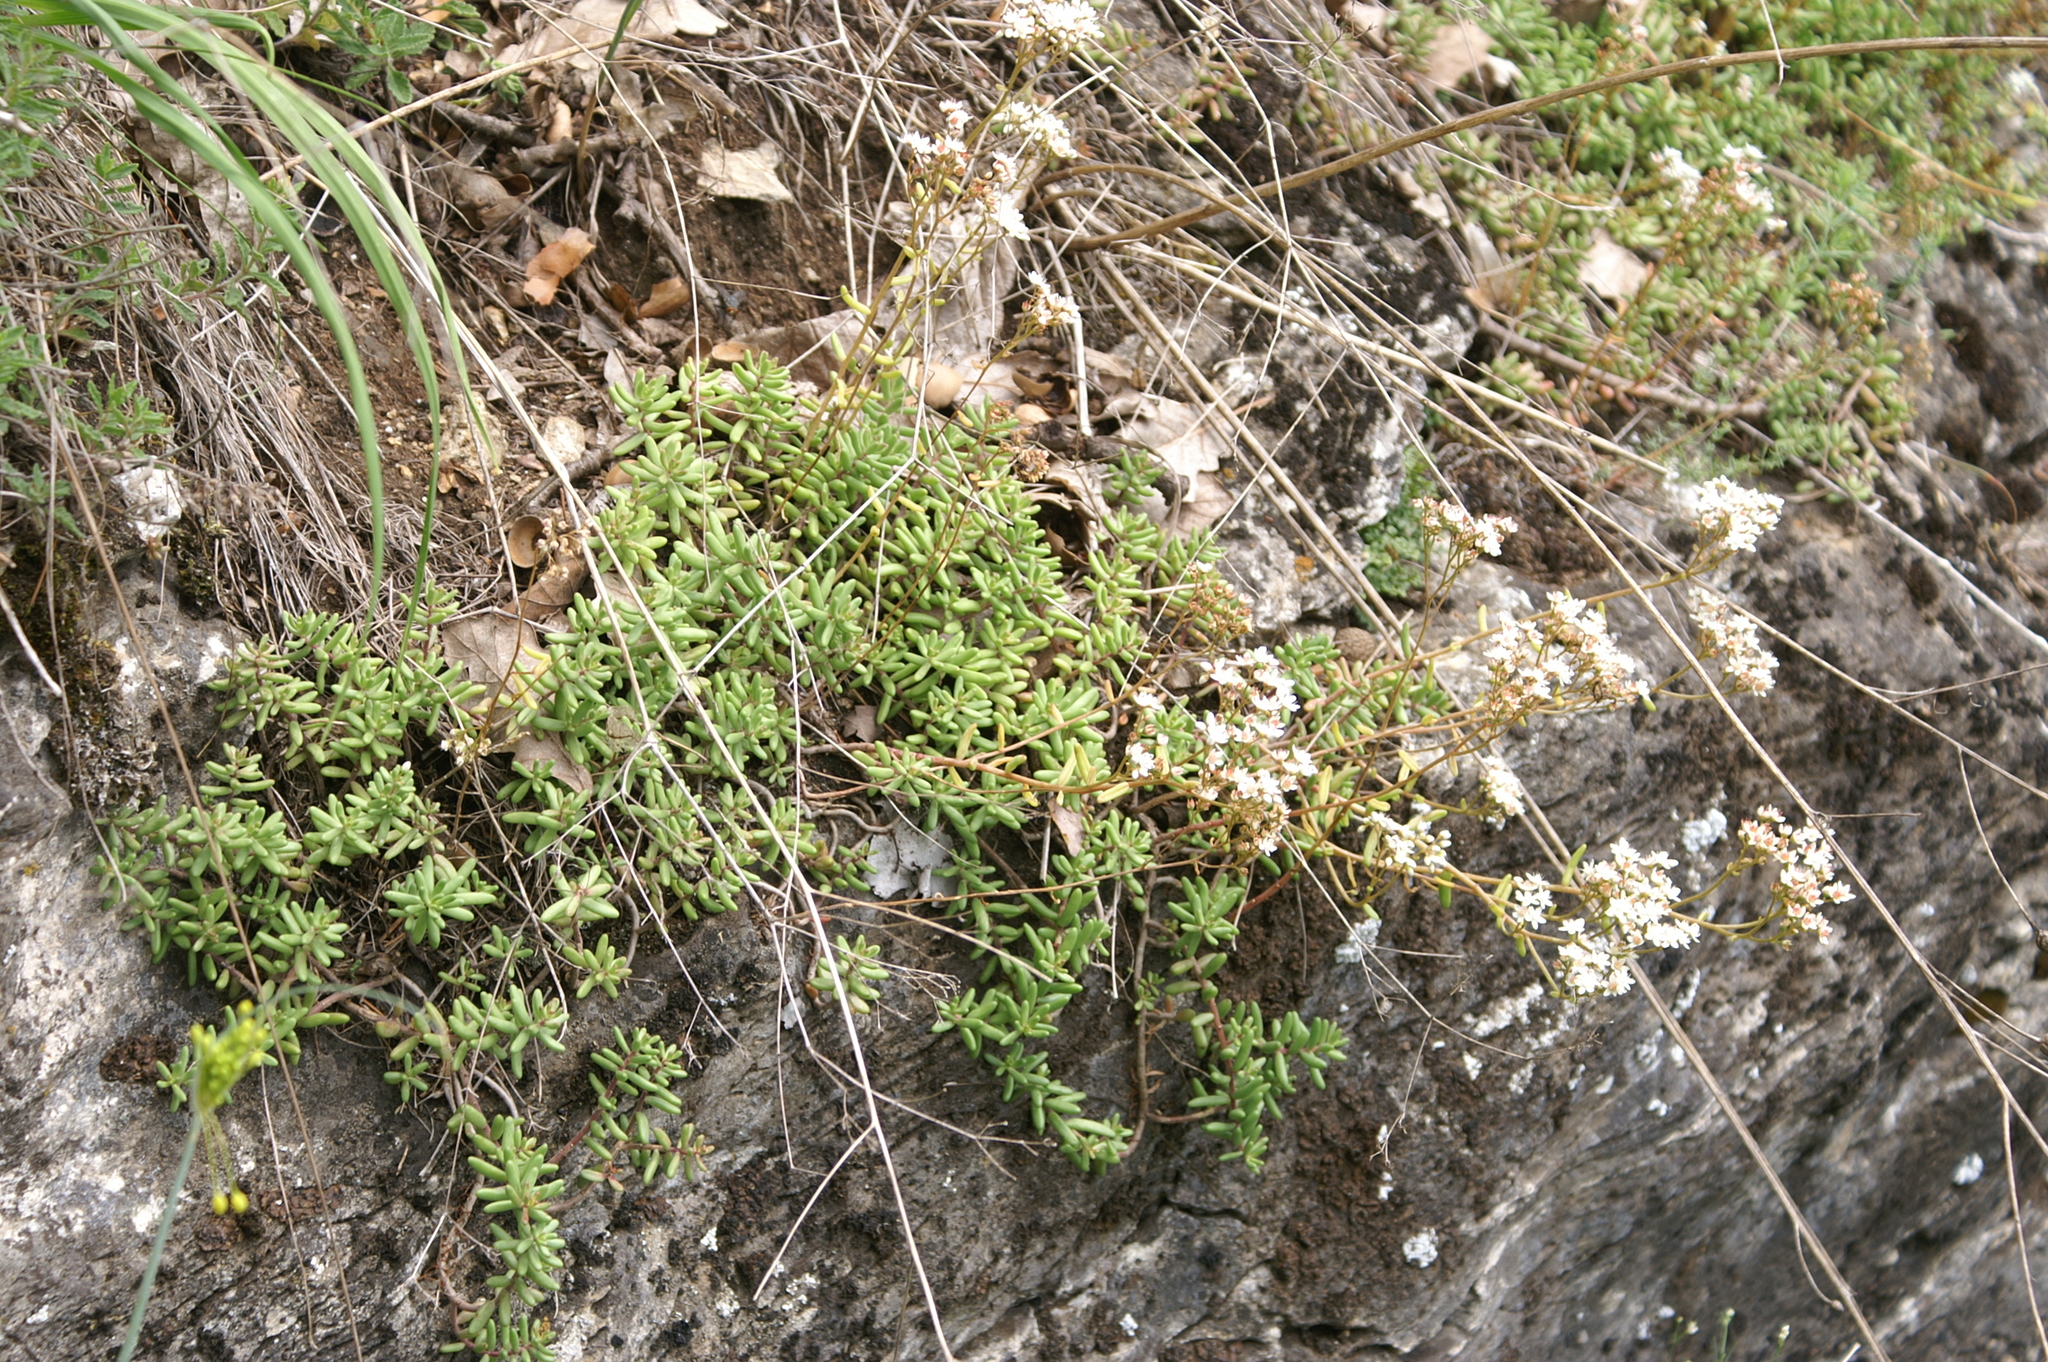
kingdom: Plantae
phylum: Tracheophyta
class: Magnoliopsida
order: Saxifragales
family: Crassulaceae
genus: Sedum
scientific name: Sedum album
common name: White stonecrop
